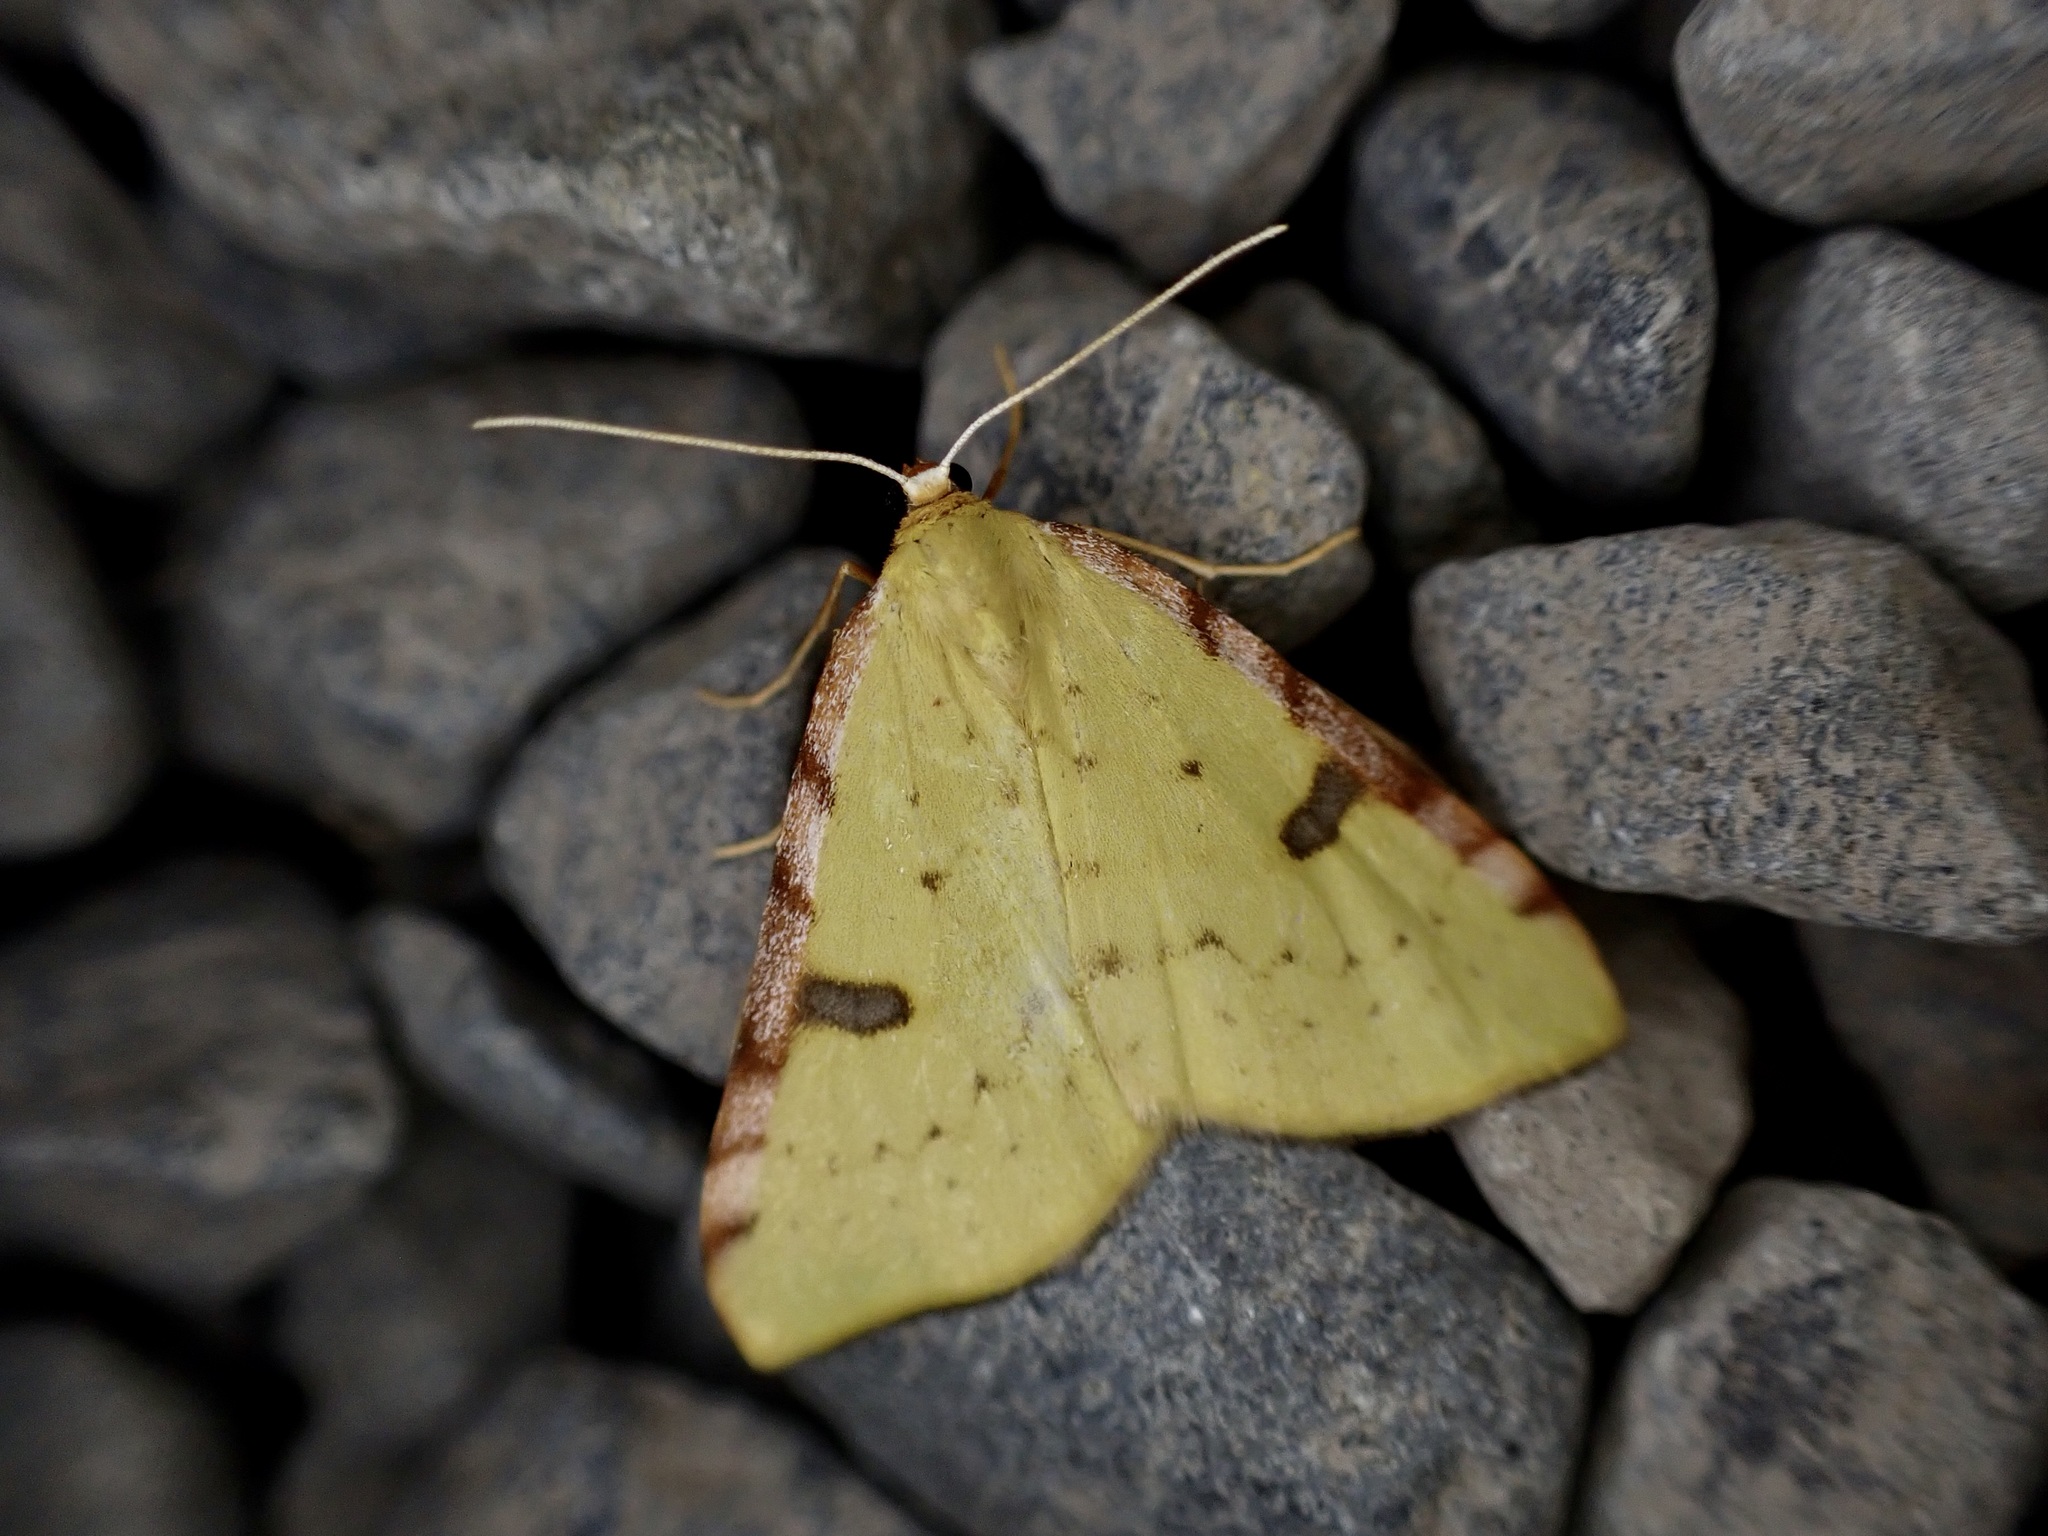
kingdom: Animalia
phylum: Arthropoda
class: Insecta
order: Lepidoptera
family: Geometridae
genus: Epiphryne
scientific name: Epiphryne xanthaspis
